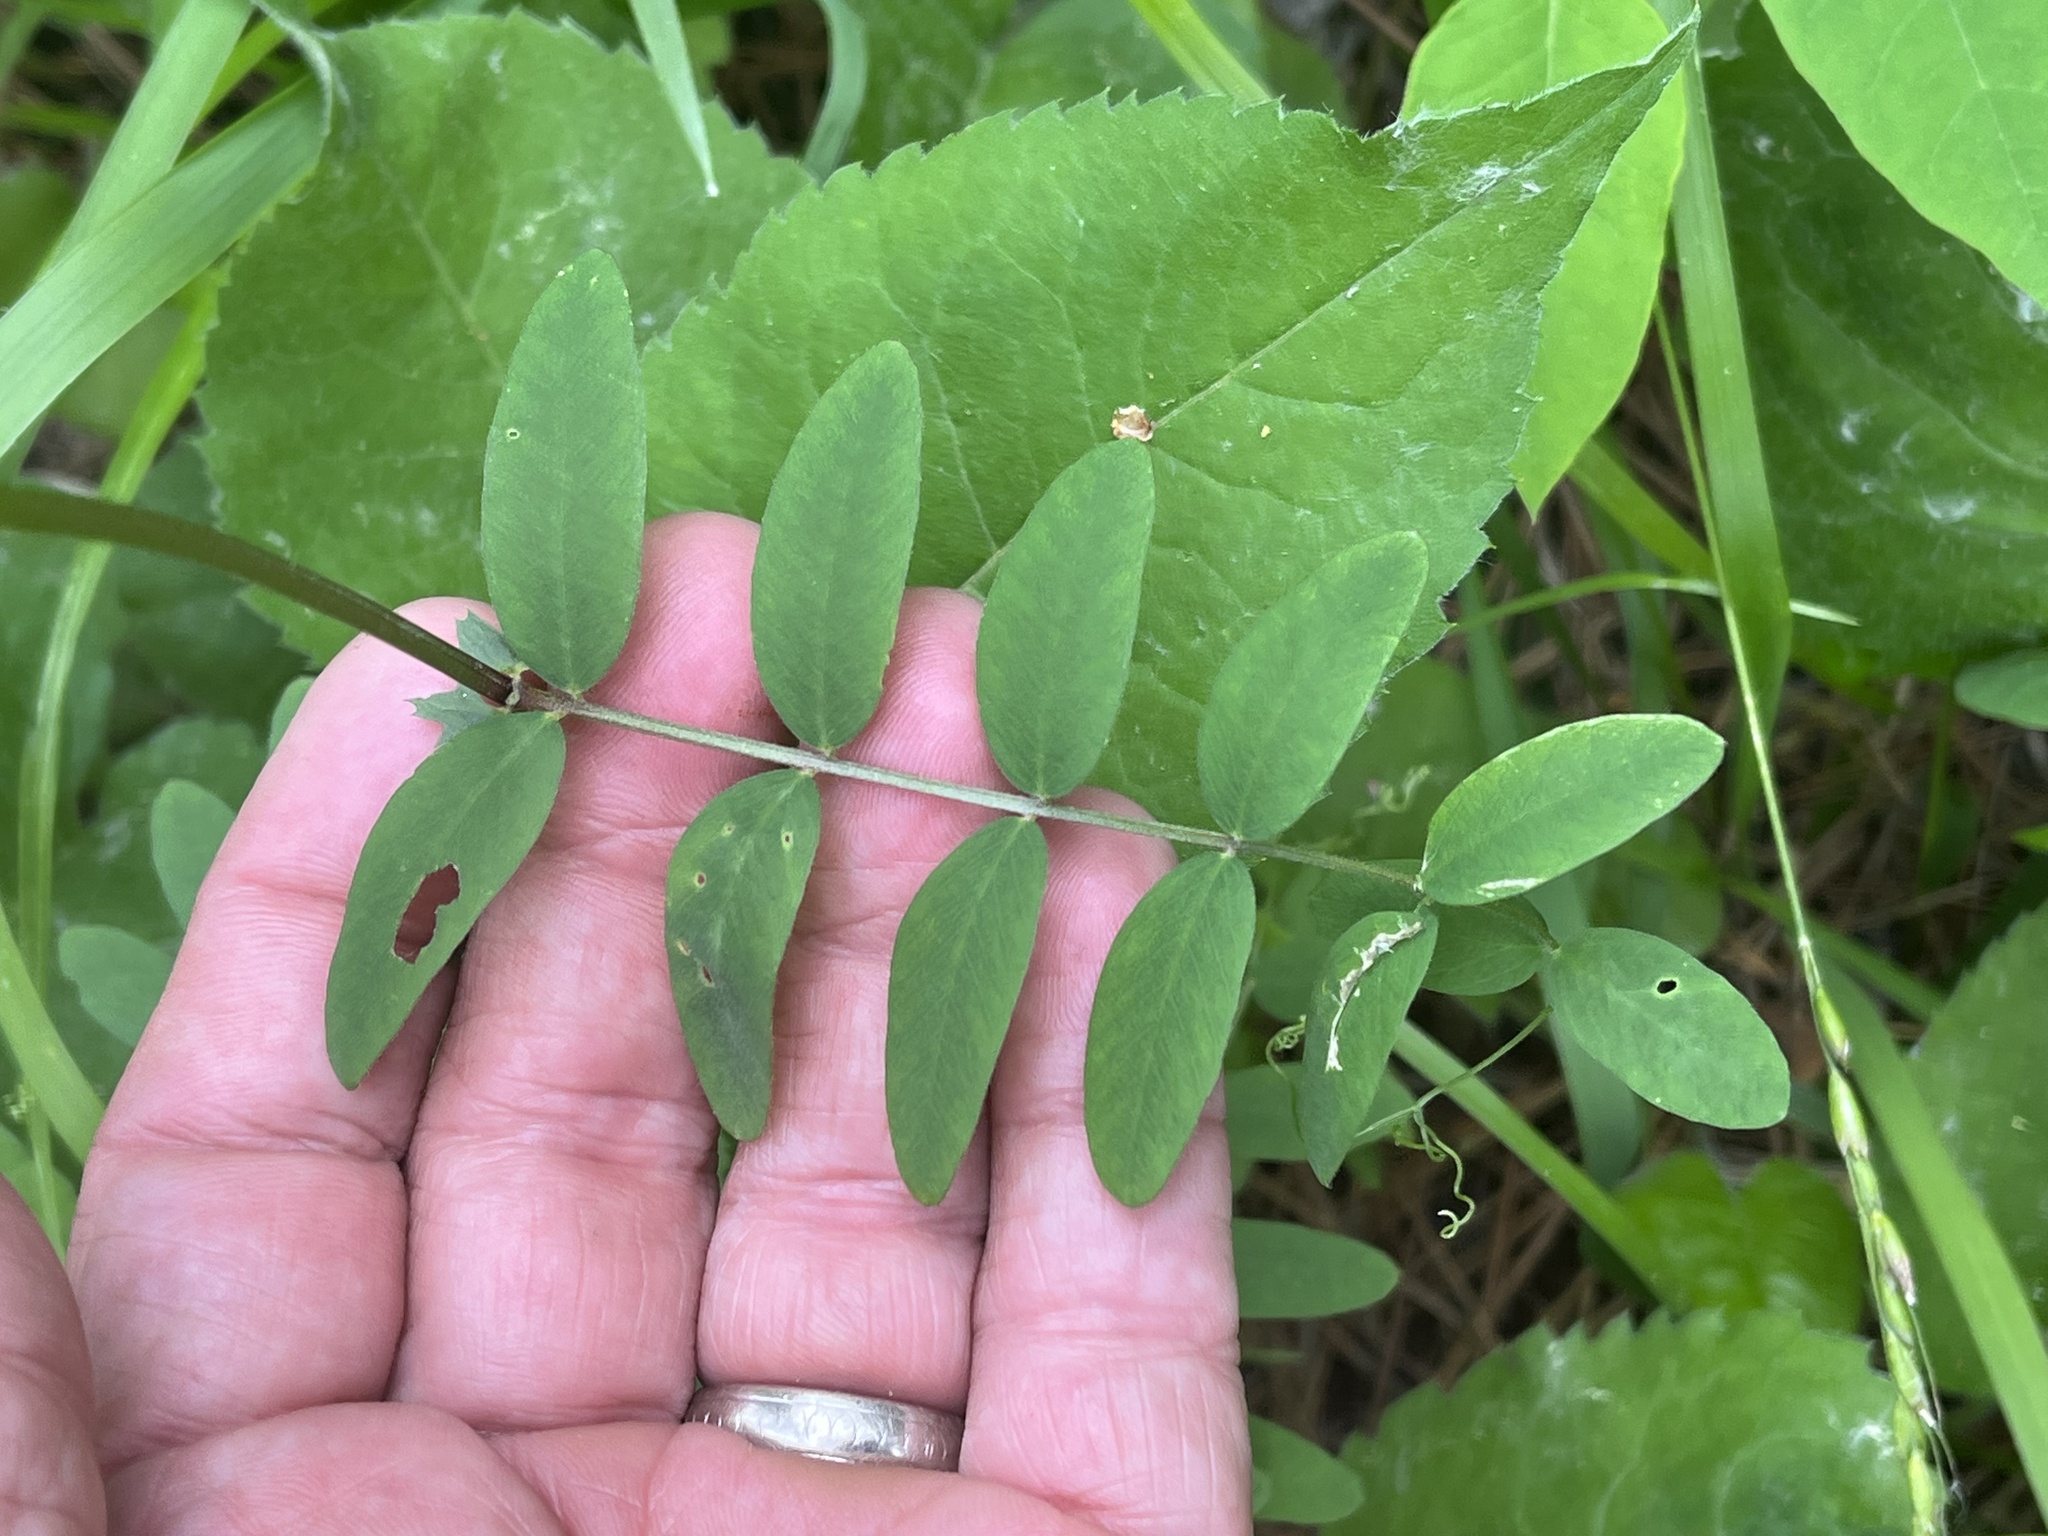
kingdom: Plantae
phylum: Tracheophyta
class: Magnoliopsida
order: Fabales
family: Fabaceae
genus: Vicia
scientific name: Vicia americana
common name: American vetch
